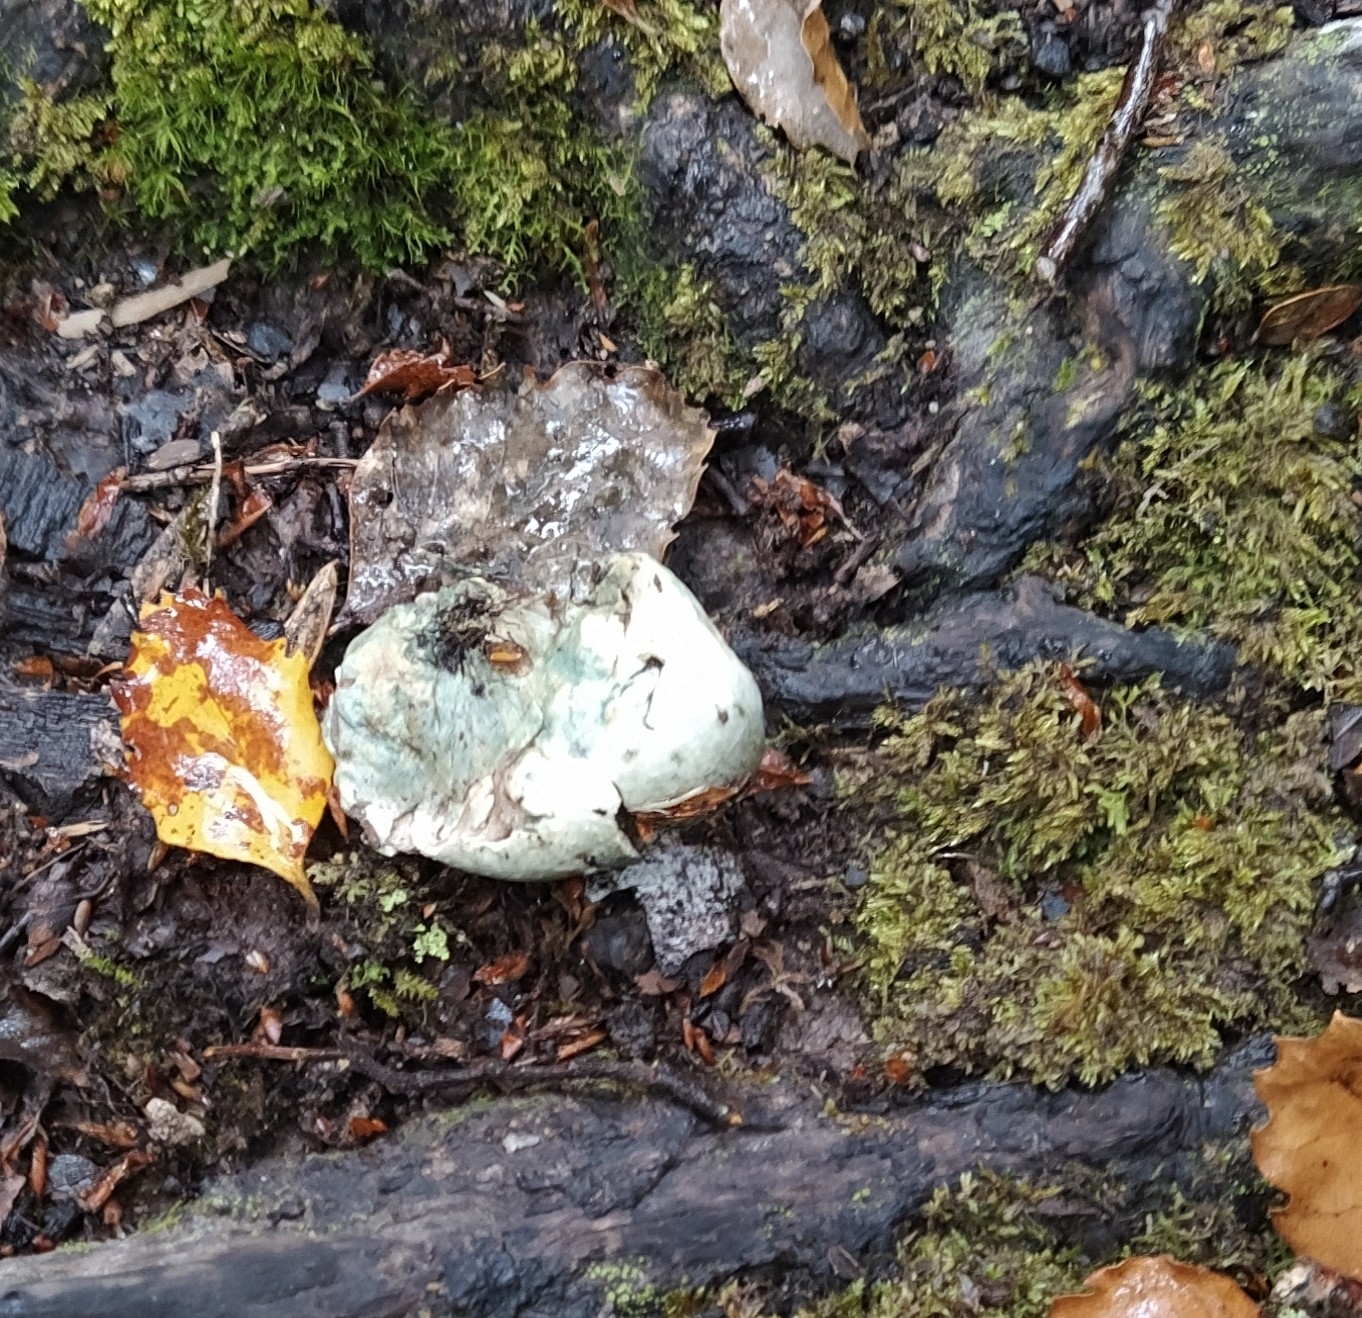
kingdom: Fungi
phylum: Basidiomycota
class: Agaricomycetes
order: Boletales
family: Boletaceae
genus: Leccinum
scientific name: Leccinum pachyderme
